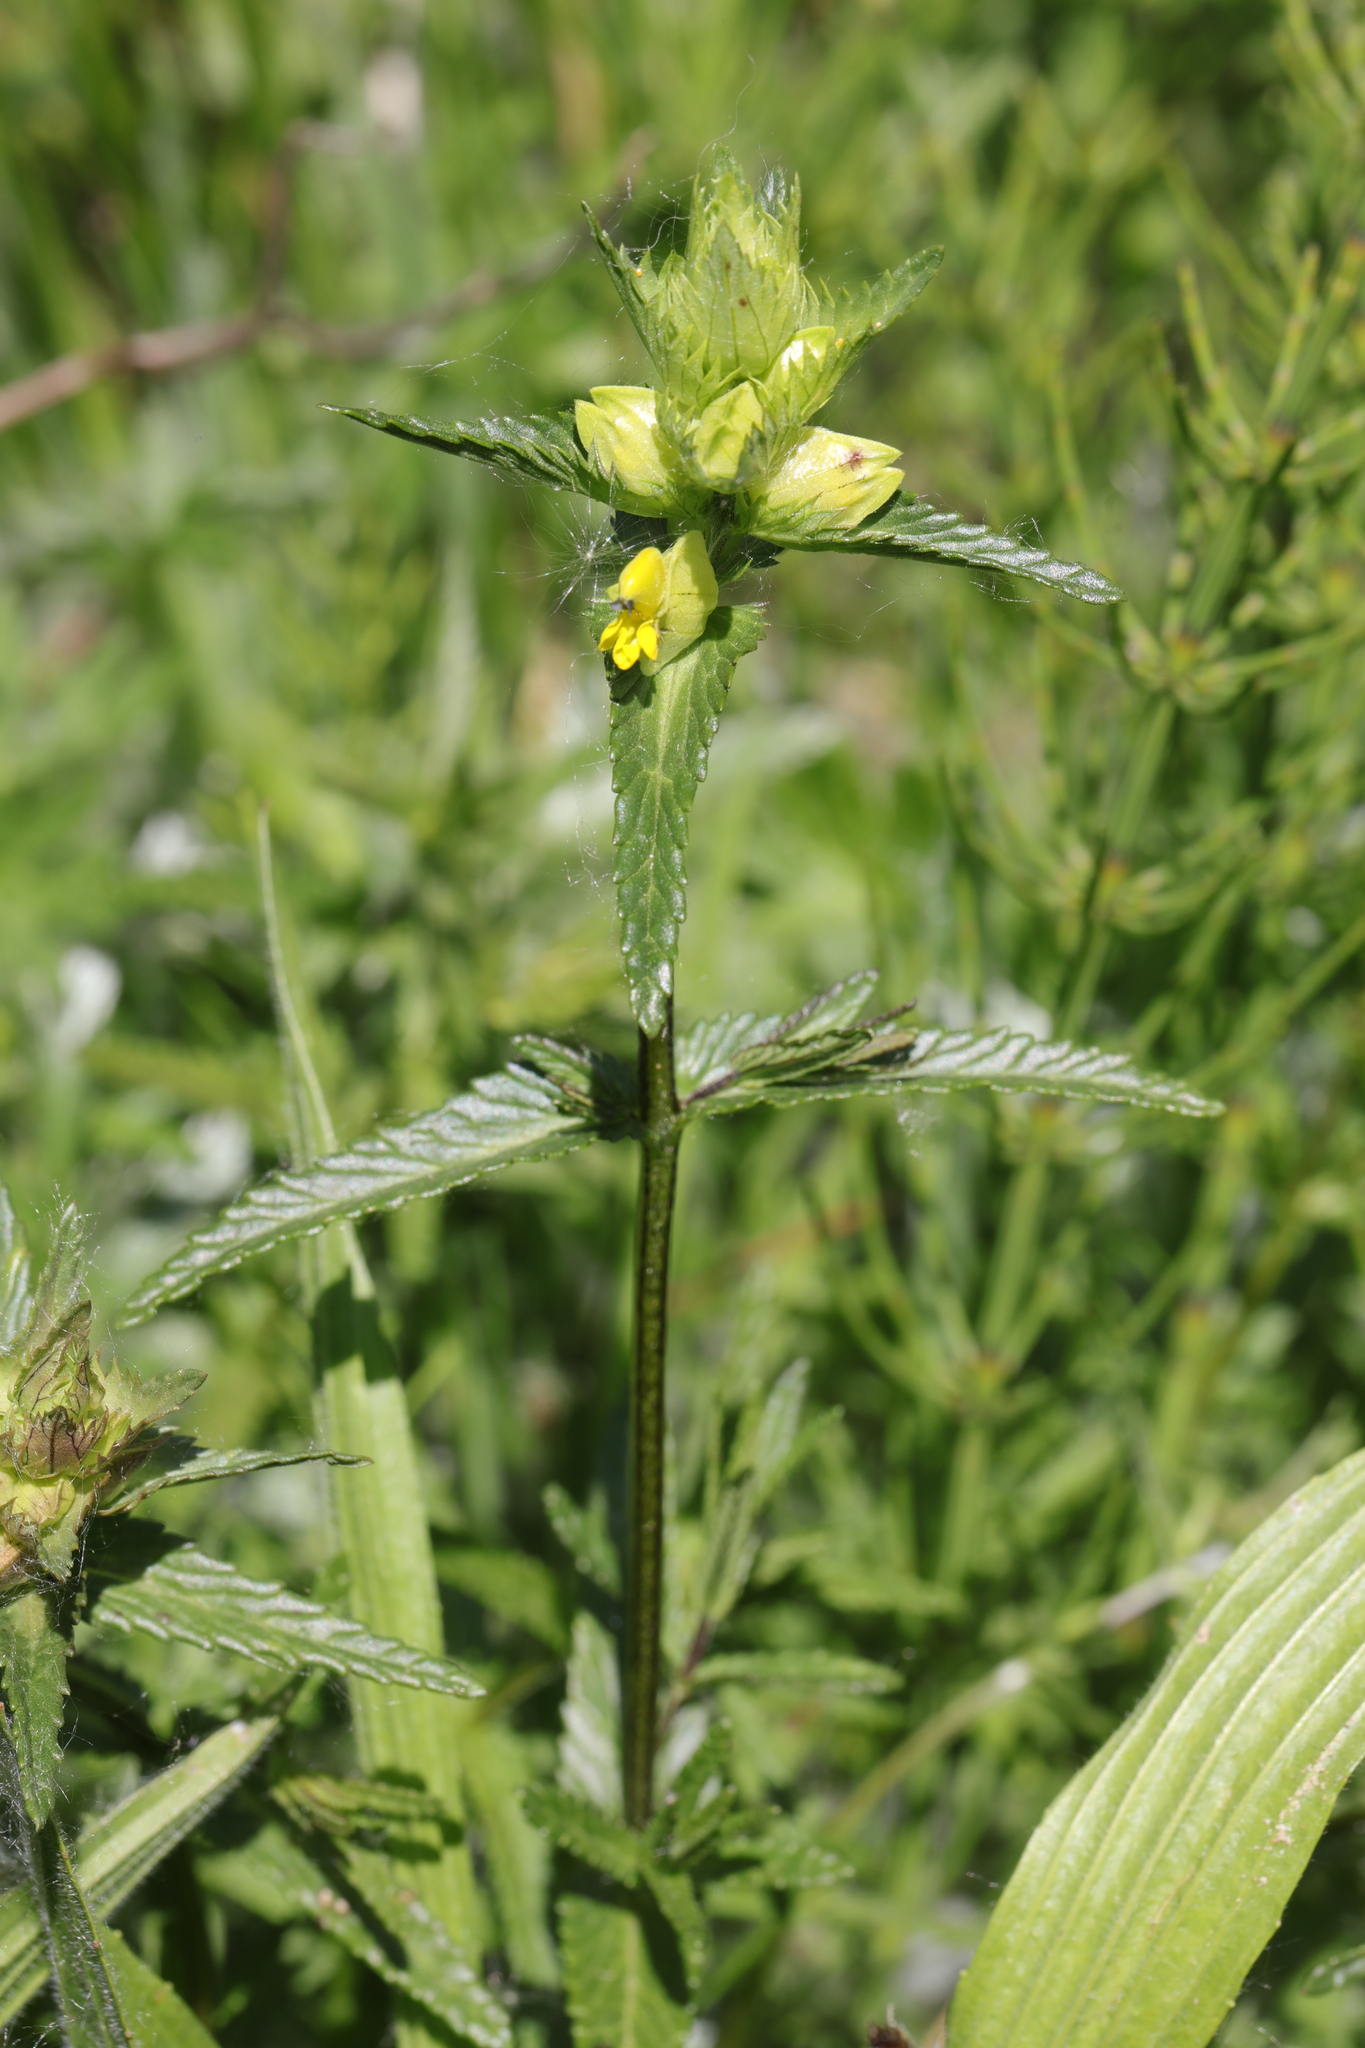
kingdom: Plantae
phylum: Tracheophyta
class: Magnoliopsida
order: Lamiales
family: Orobanchaceae
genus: Rhinanthus
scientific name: Rhinanthus minor
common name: Yellow-rattle
